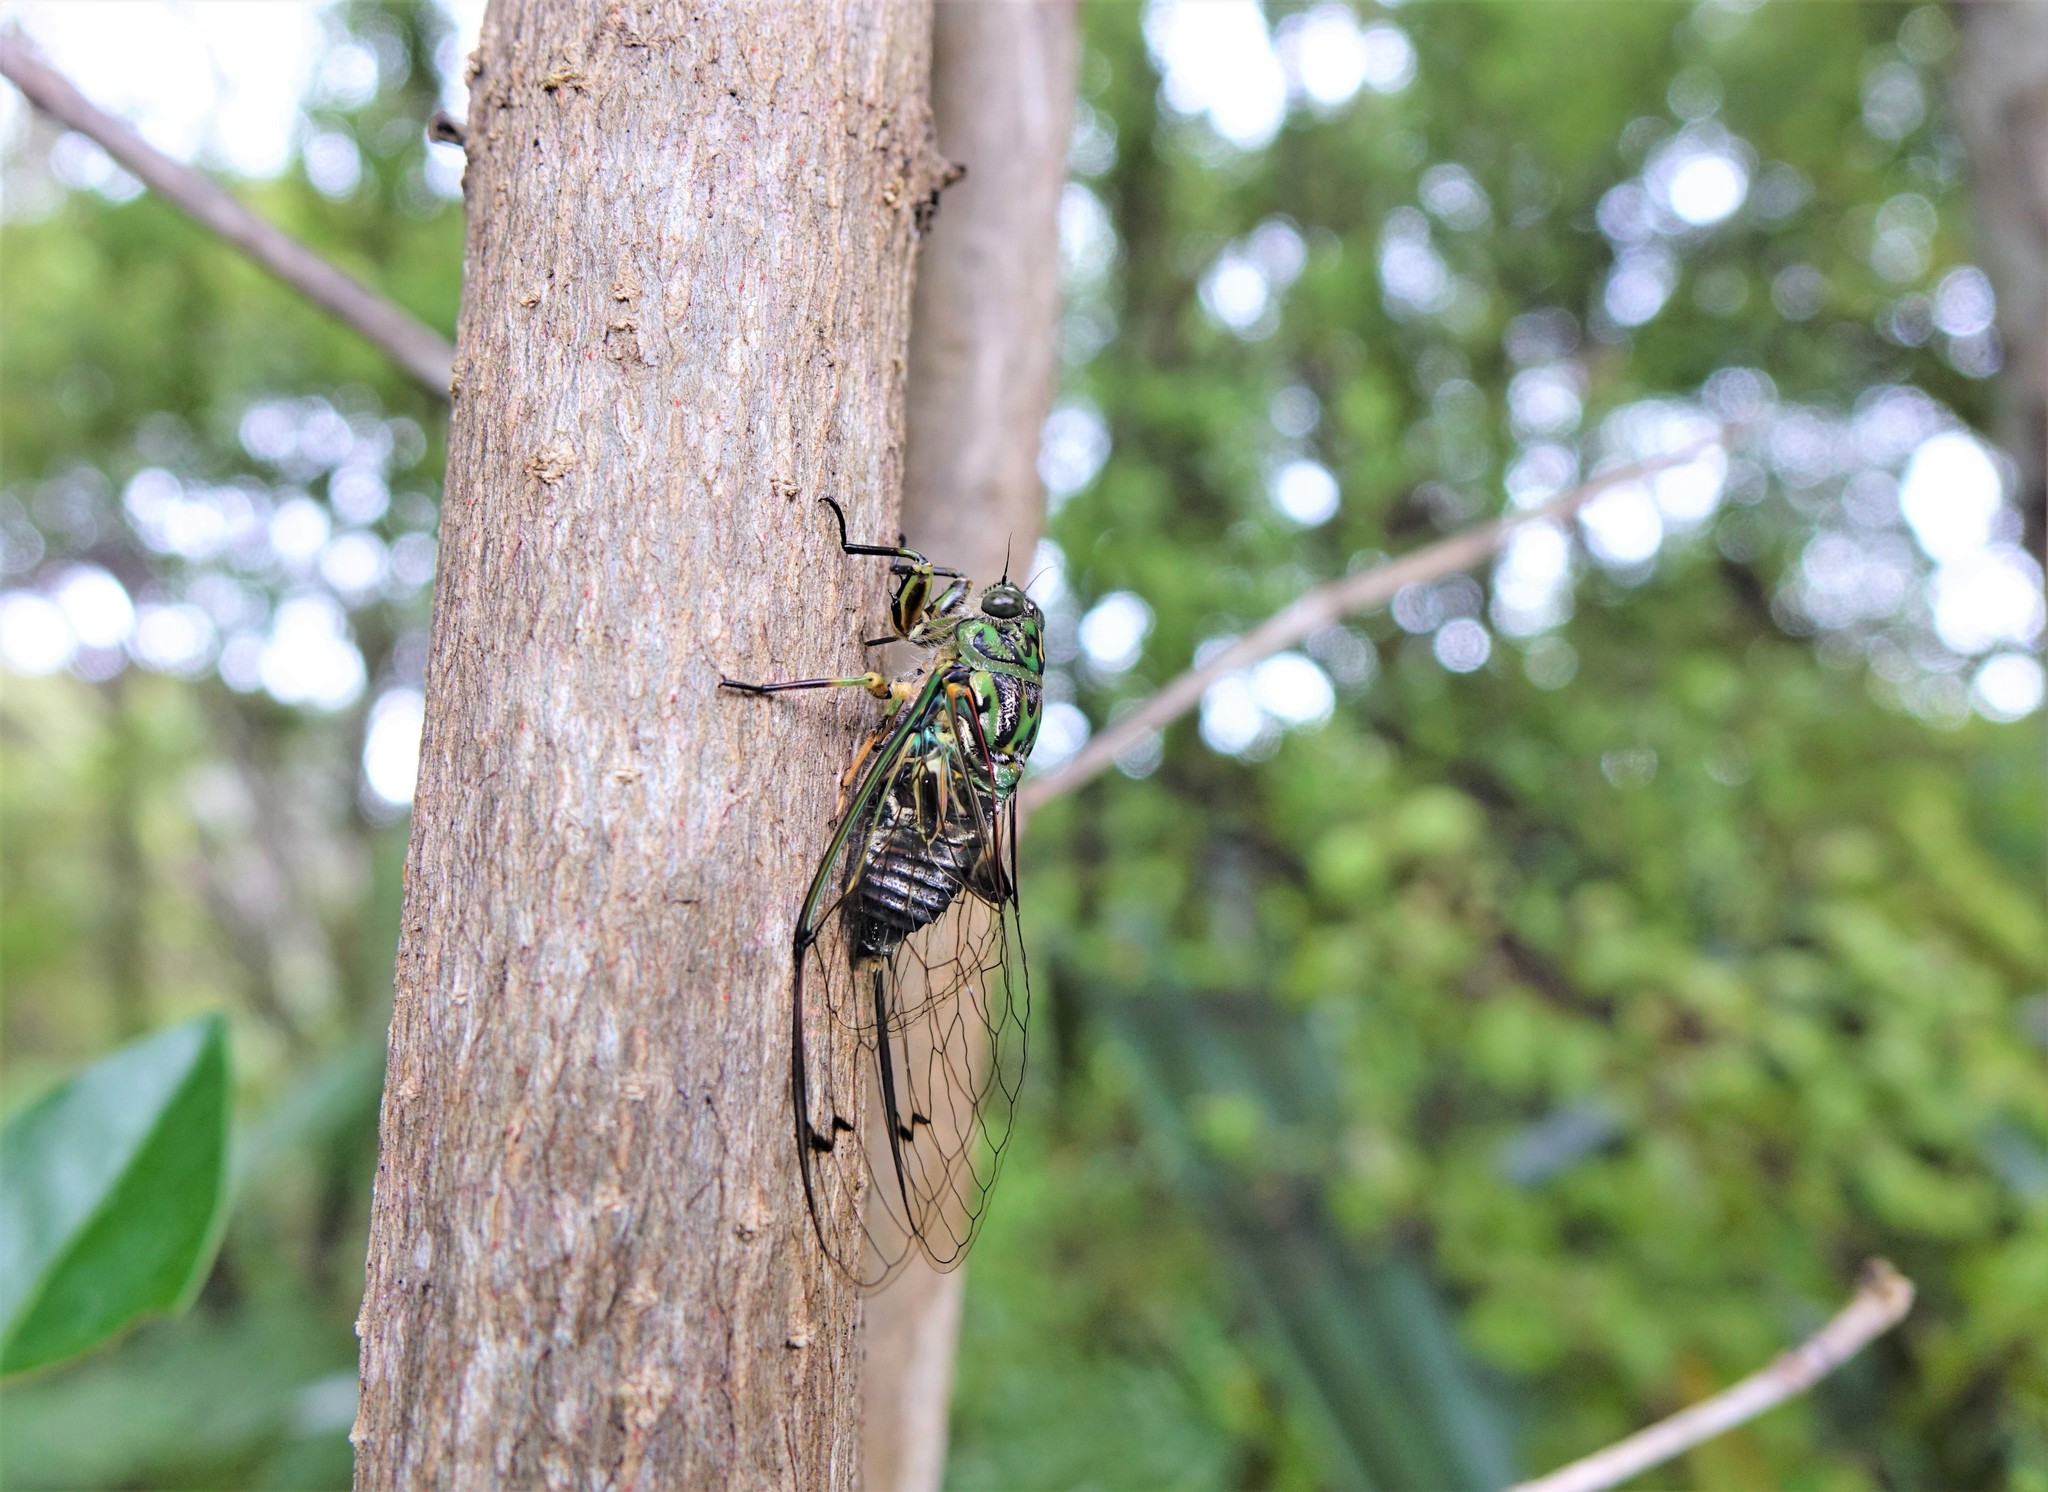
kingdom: Animalia
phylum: Arthropoda
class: Insecta
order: Hemiptera
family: Cicadidae
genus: Amphipsalta
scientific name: Amphipsalta zelandica
